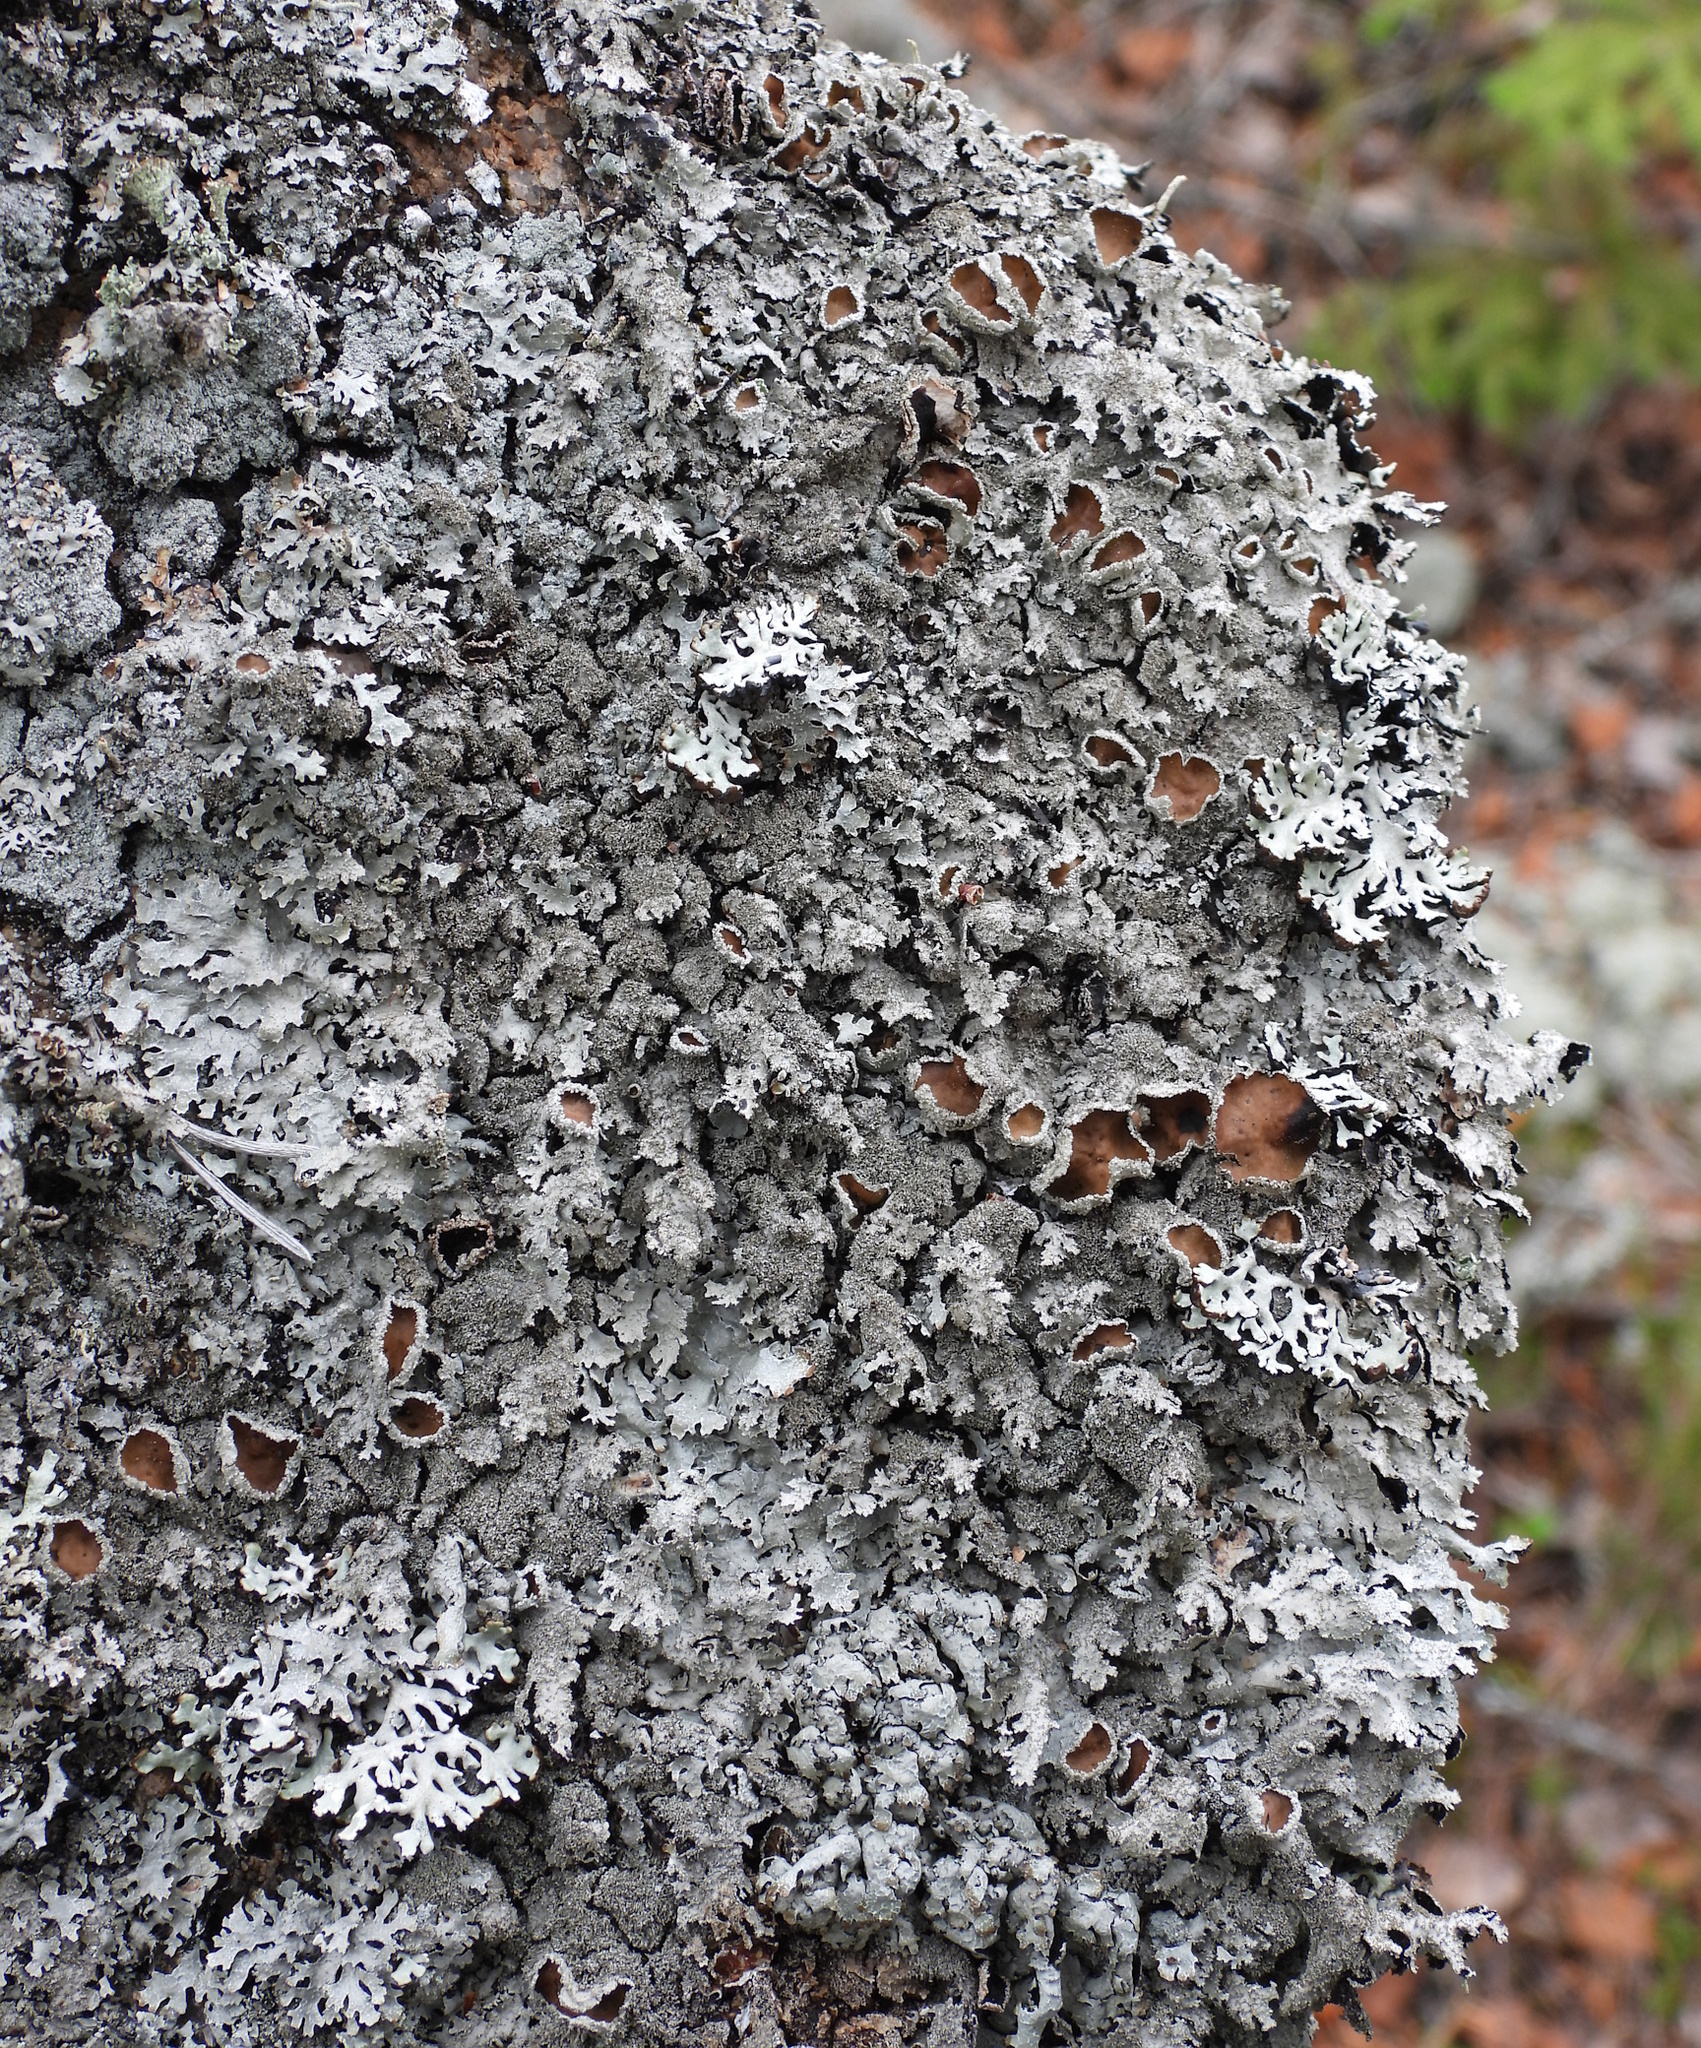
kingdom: Fungi
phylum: Ascomycota
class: Lecanoromycetes
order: Lecanorales
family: Parmeliaceae
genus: Parmelia
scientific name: Parmelia saxatilis
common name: Salted shield lichen
